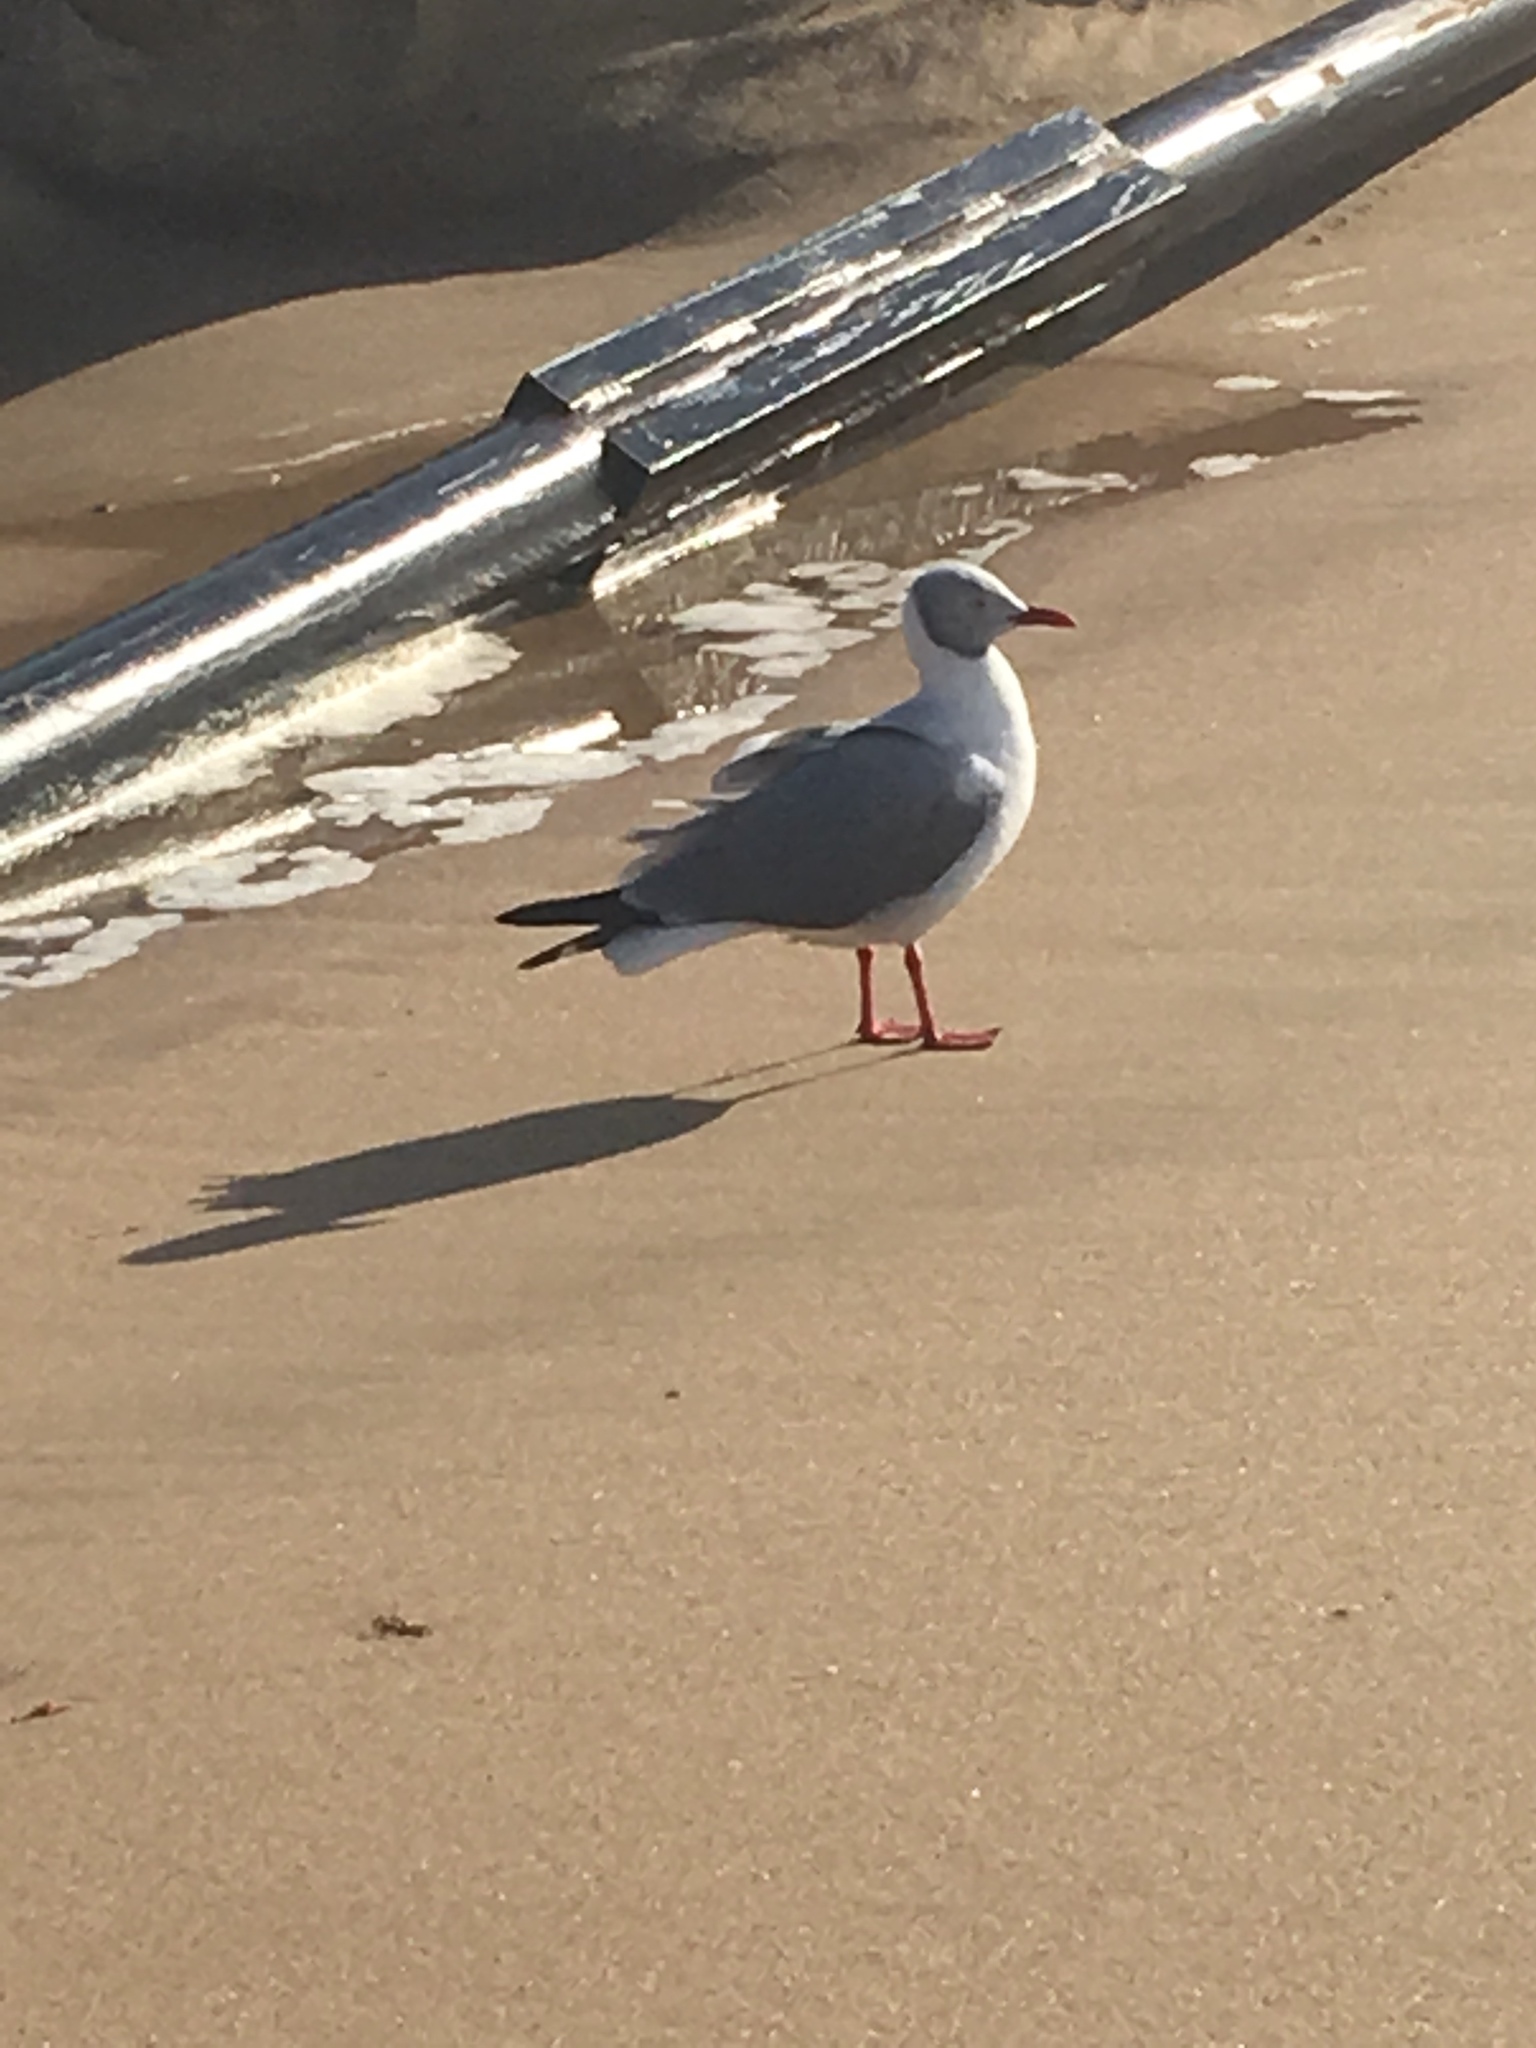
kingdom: Animalia
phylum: Chordata
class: Aves
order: Charadriiformes
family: Laridae
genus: Chroicocephalus
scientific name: Chroicocephalus cirrocephalus
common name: Grey-headed gull
